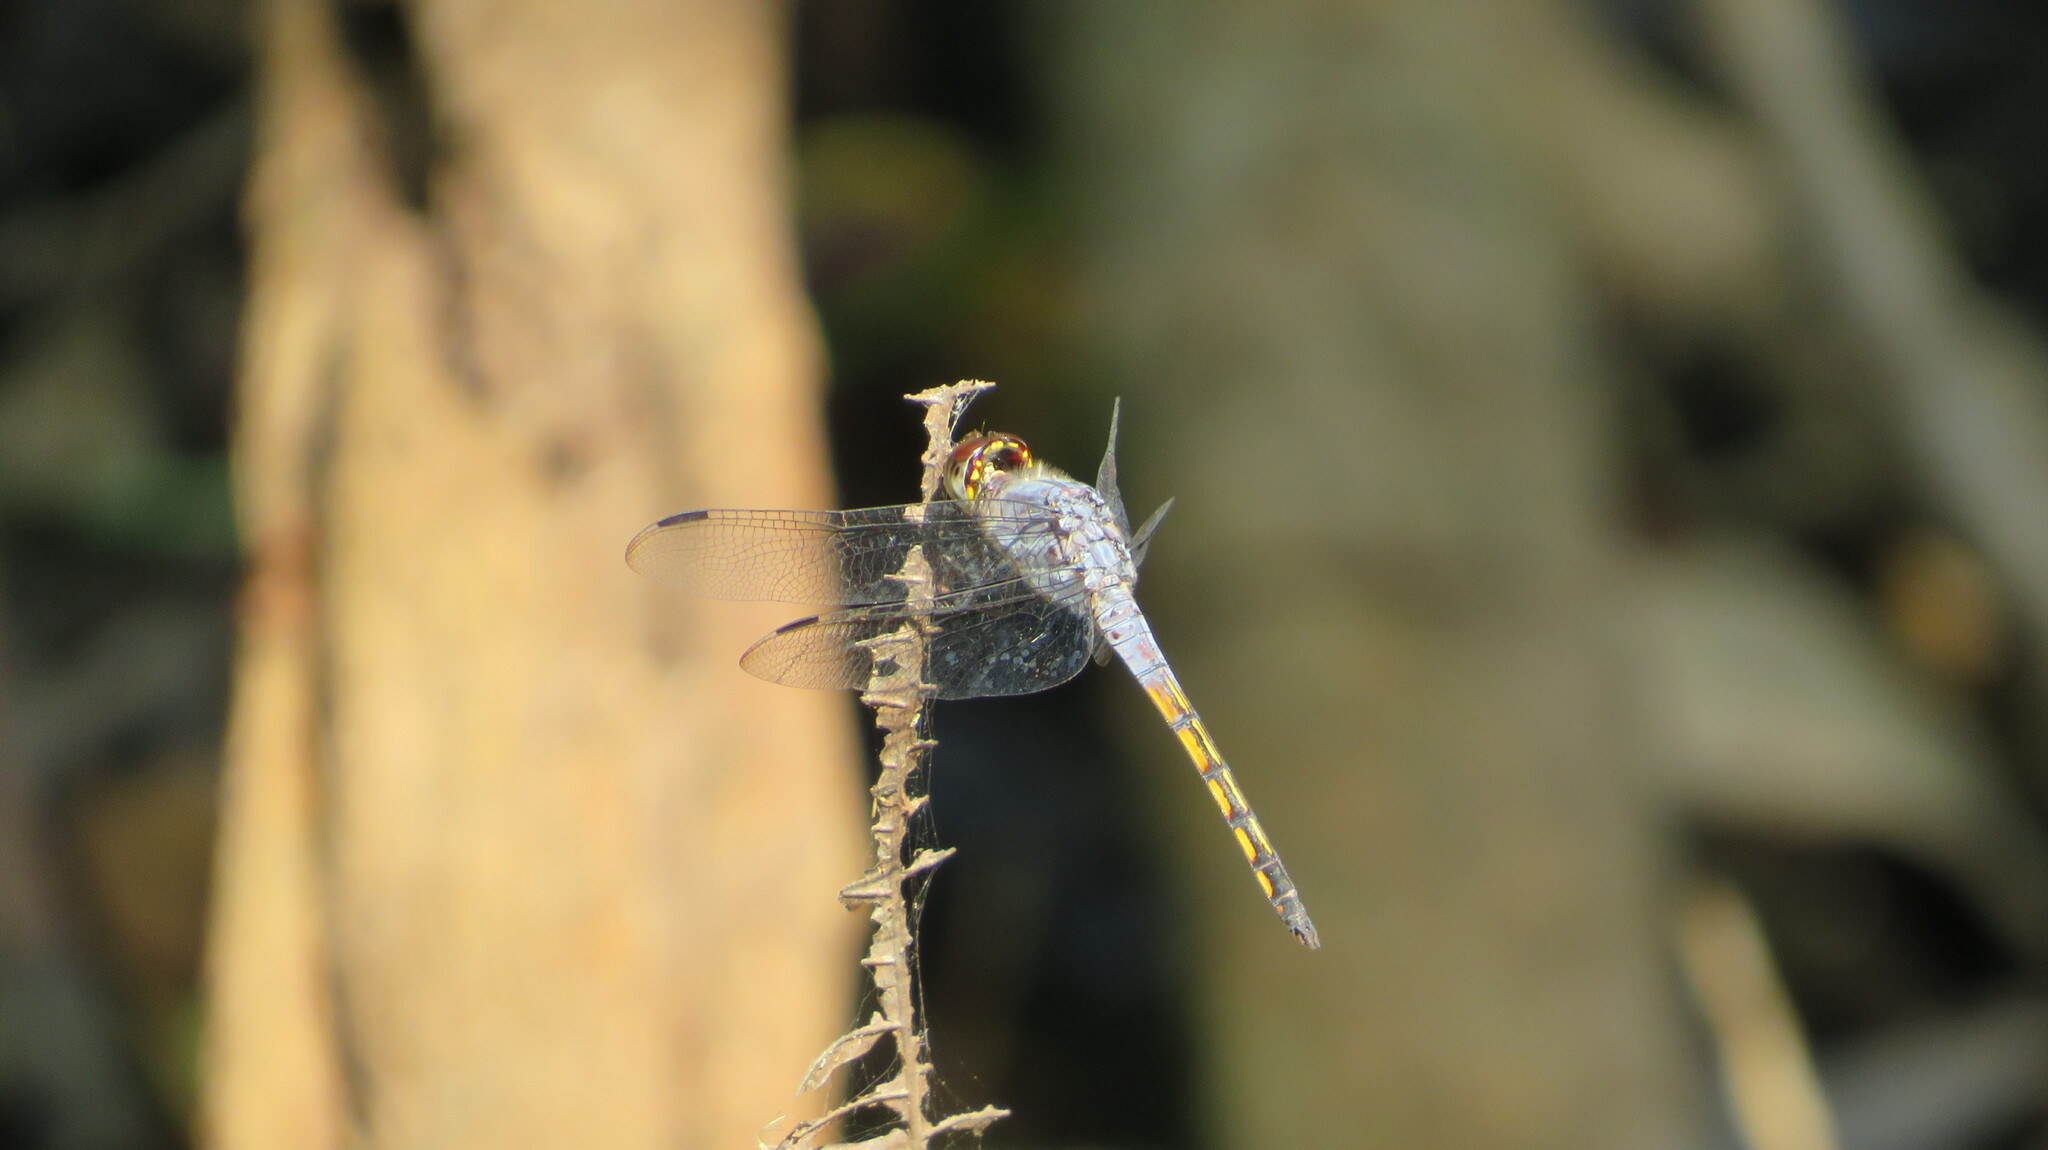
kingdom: Animalia
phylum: Arthropoda
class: Insecta
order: Odonata
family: Libellulidae
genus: Potamarcha
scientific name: Potamarcha congener
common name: Blue chaser
